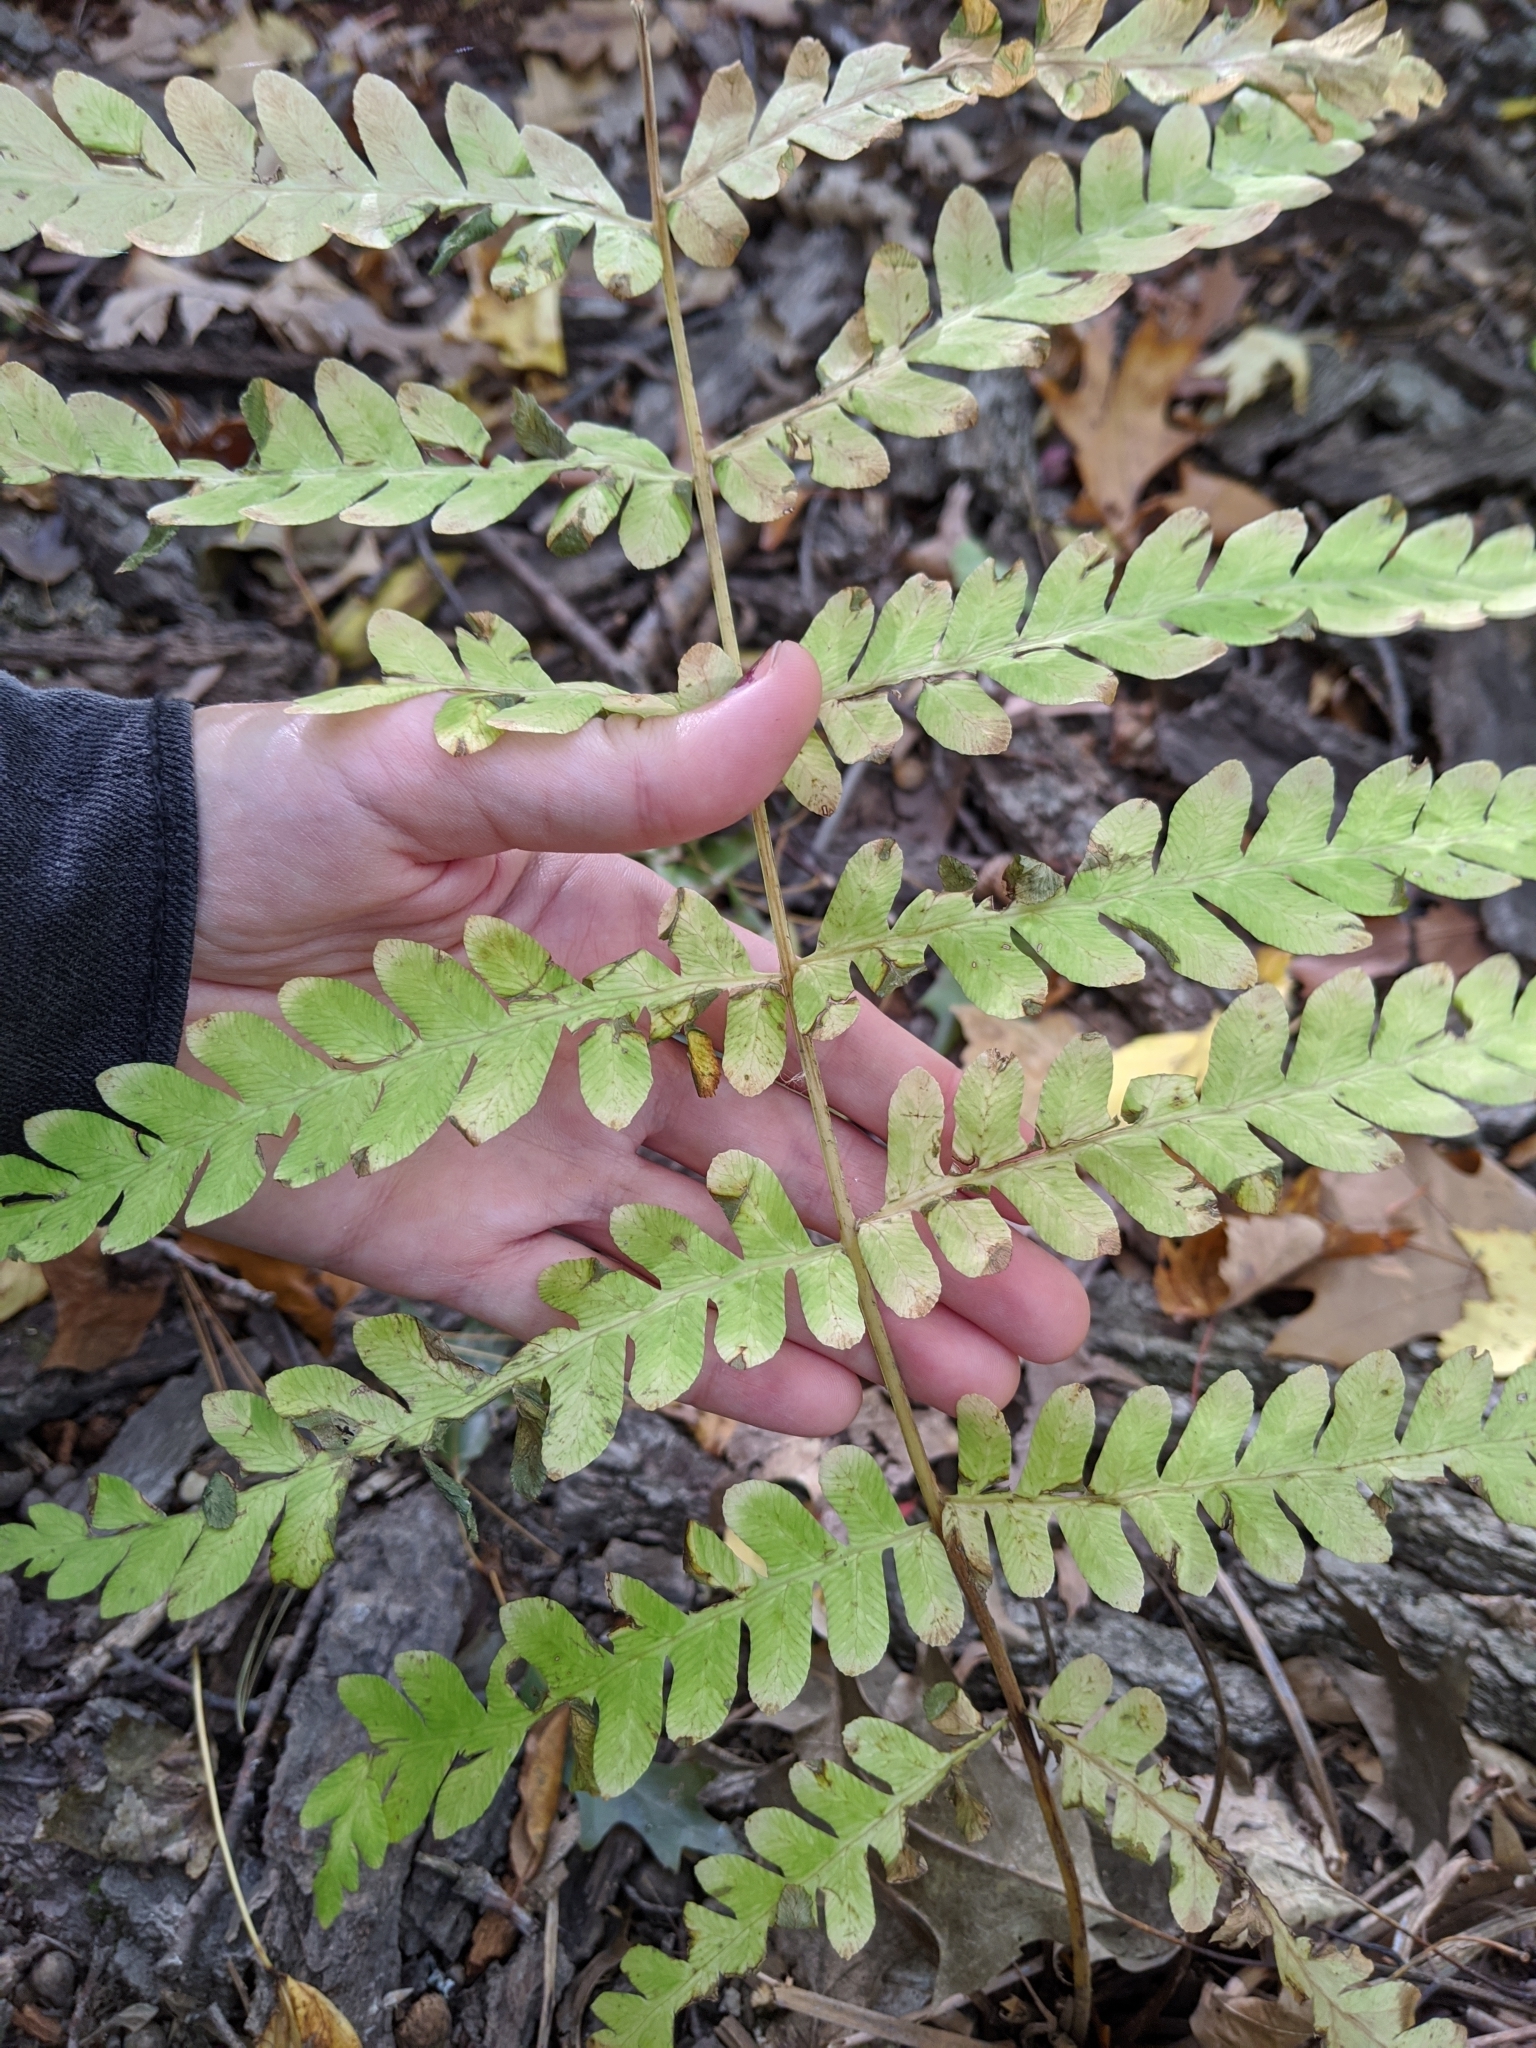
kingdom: Plantae
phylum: Tracheophyta
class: Polypodiopsida
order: Osmundales
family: Osmundaceae
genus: Claytosmunda
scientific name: Claytosmunda claytoniana
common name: Clayton's fern
